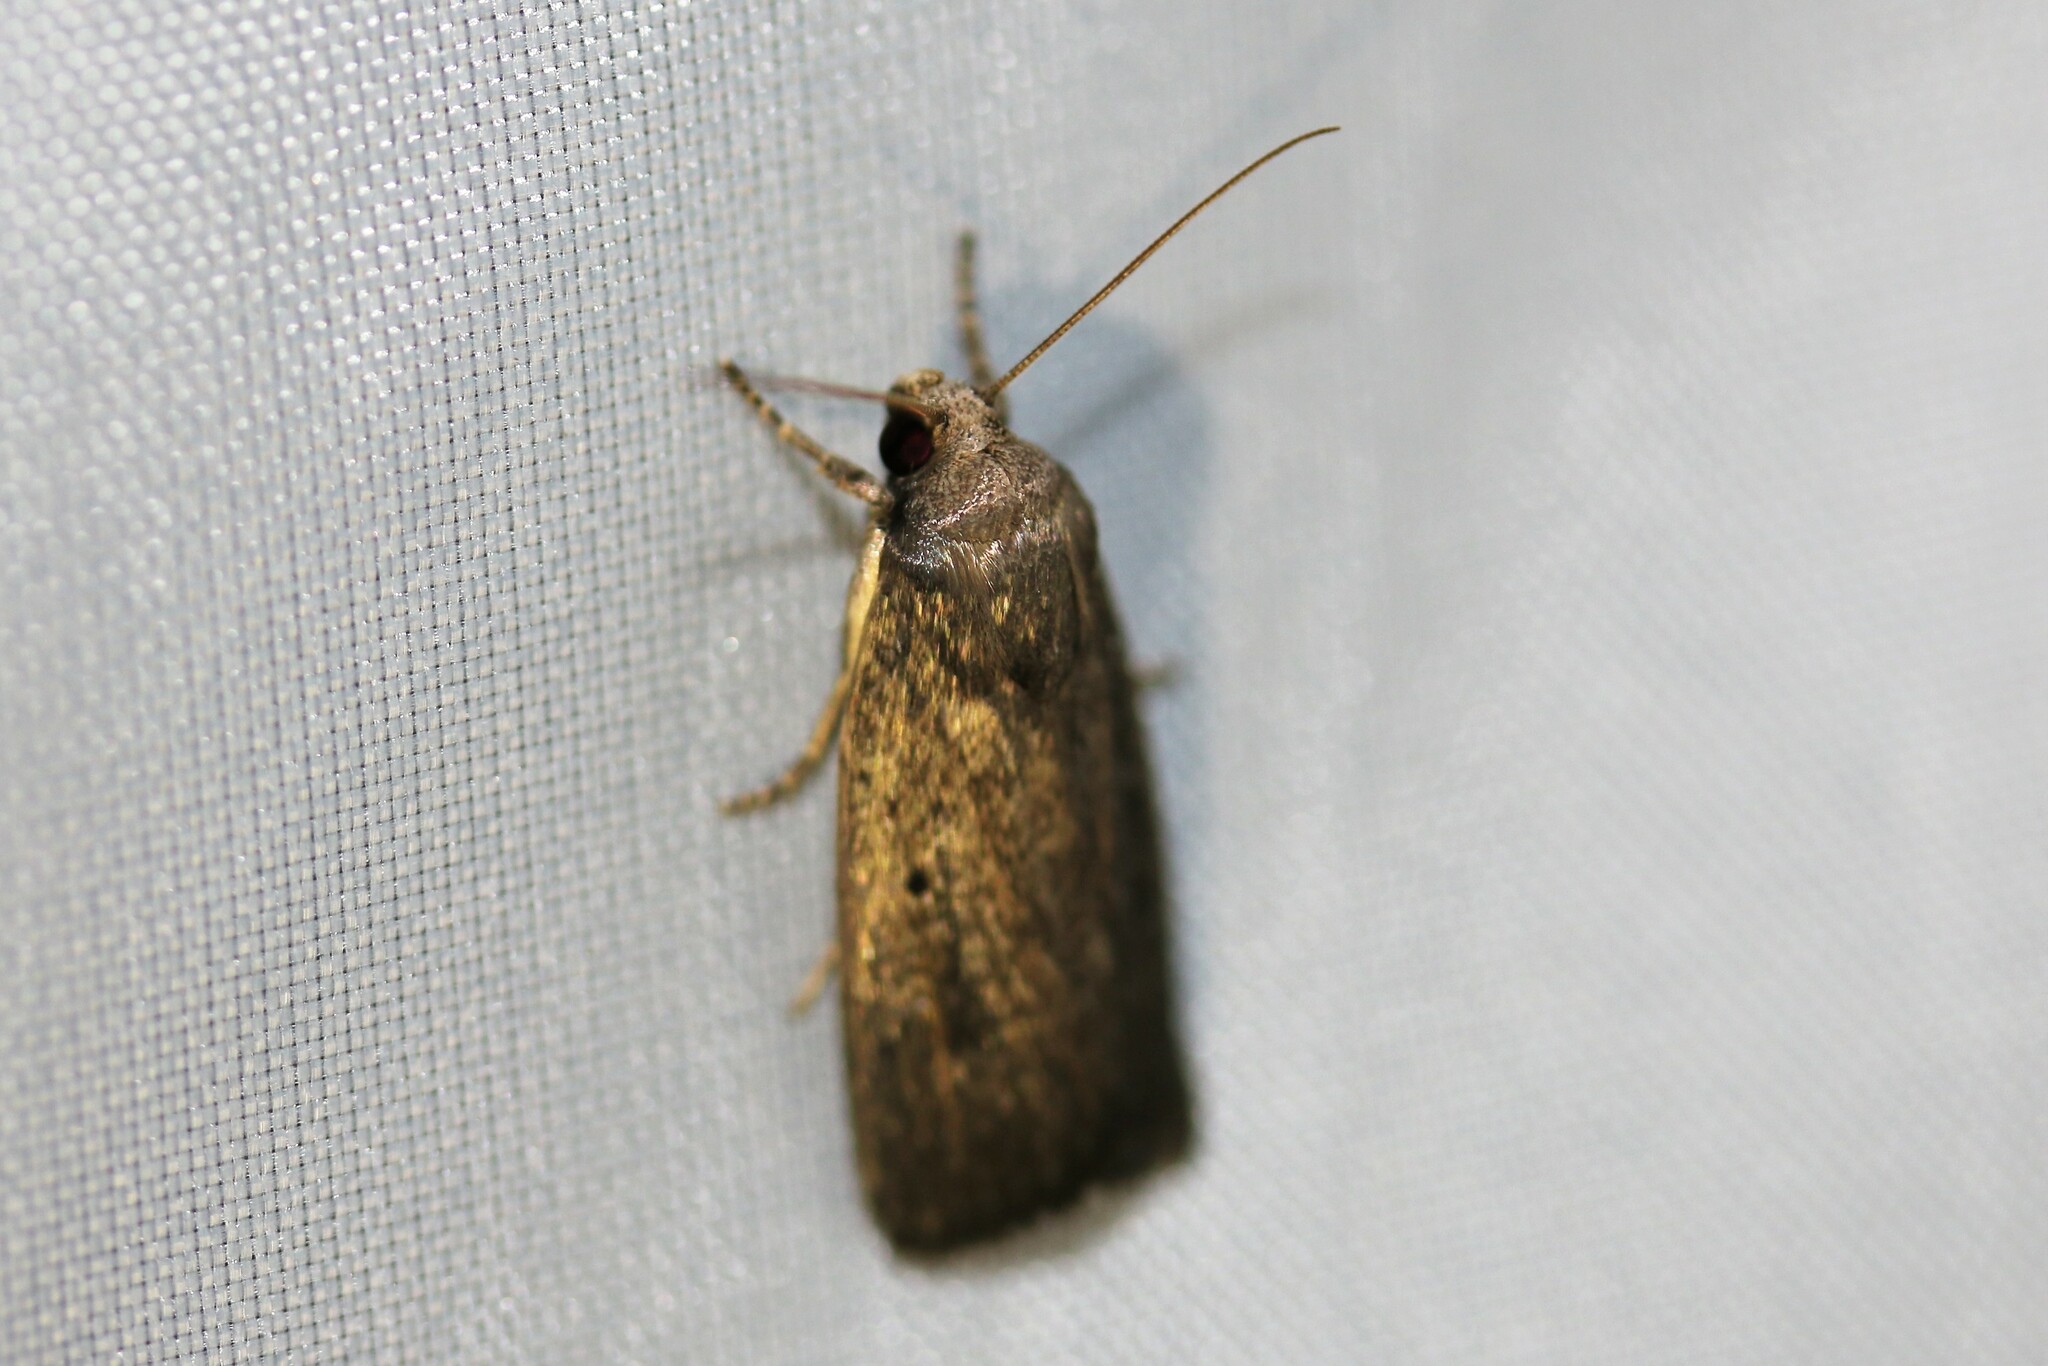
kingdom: Animalia
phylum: Arthropoda
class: Insecta
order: Lepidoptera
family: Noctuidae
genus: Athetis
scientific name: Athetis hospes
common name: Porter's rustic
